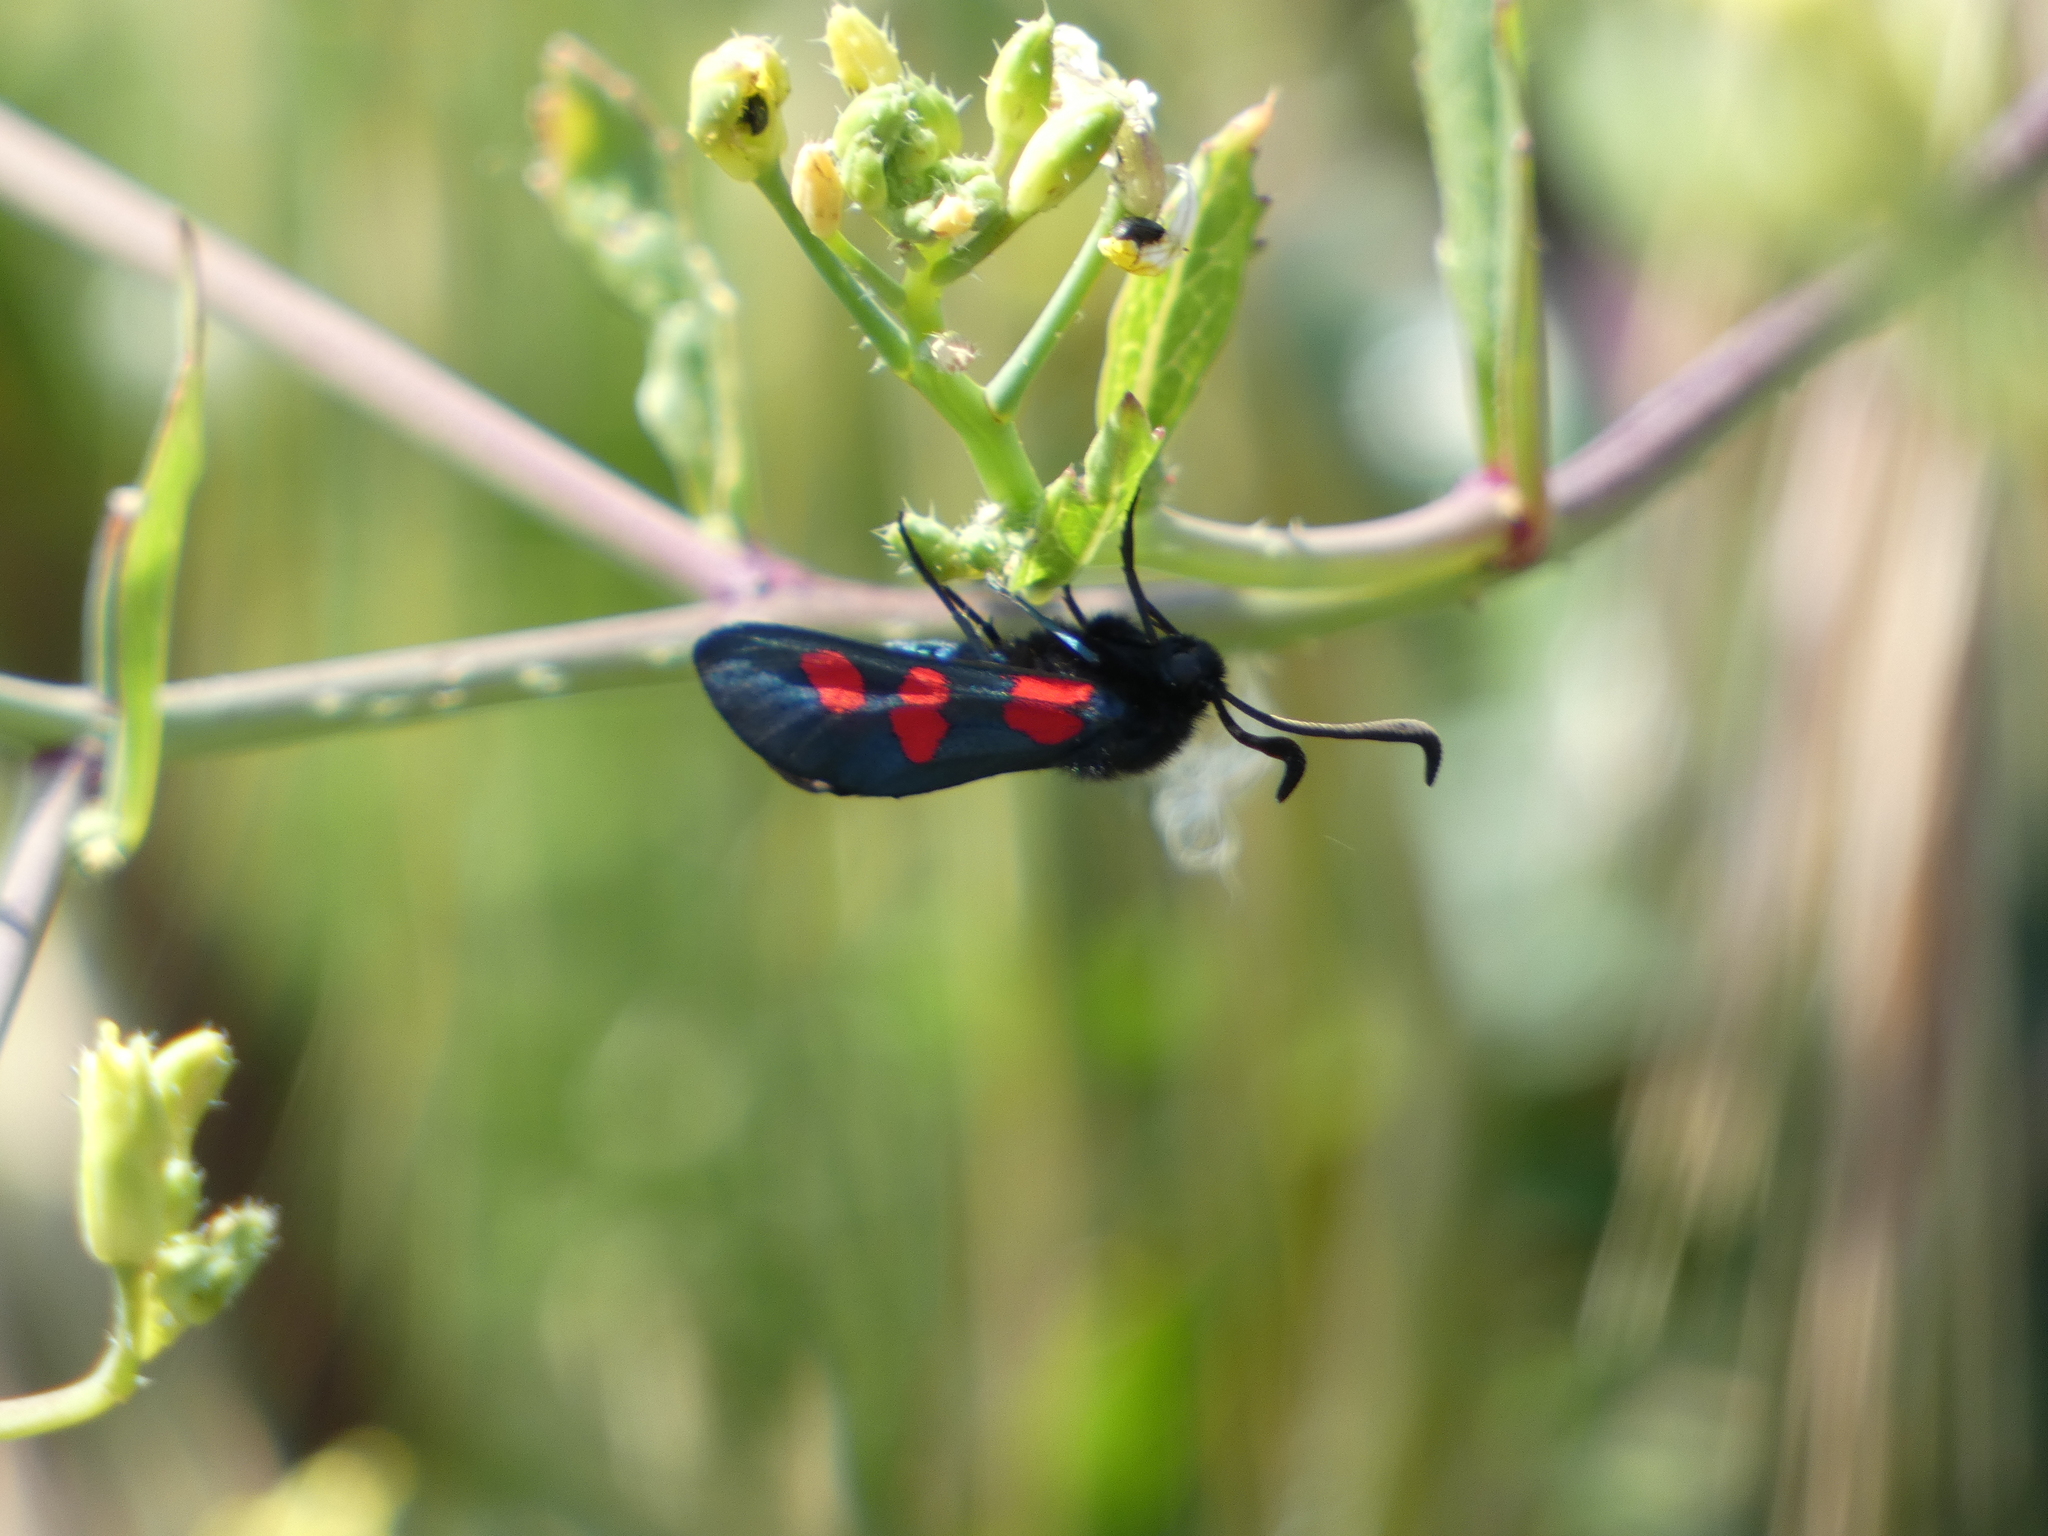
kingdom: Animalia
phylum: Arthropoda
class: Insecta
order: Lepidoptera
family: Zygaenidae
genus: Zygaena
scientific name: Zygaena trifolii
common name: Five-spot burnet
